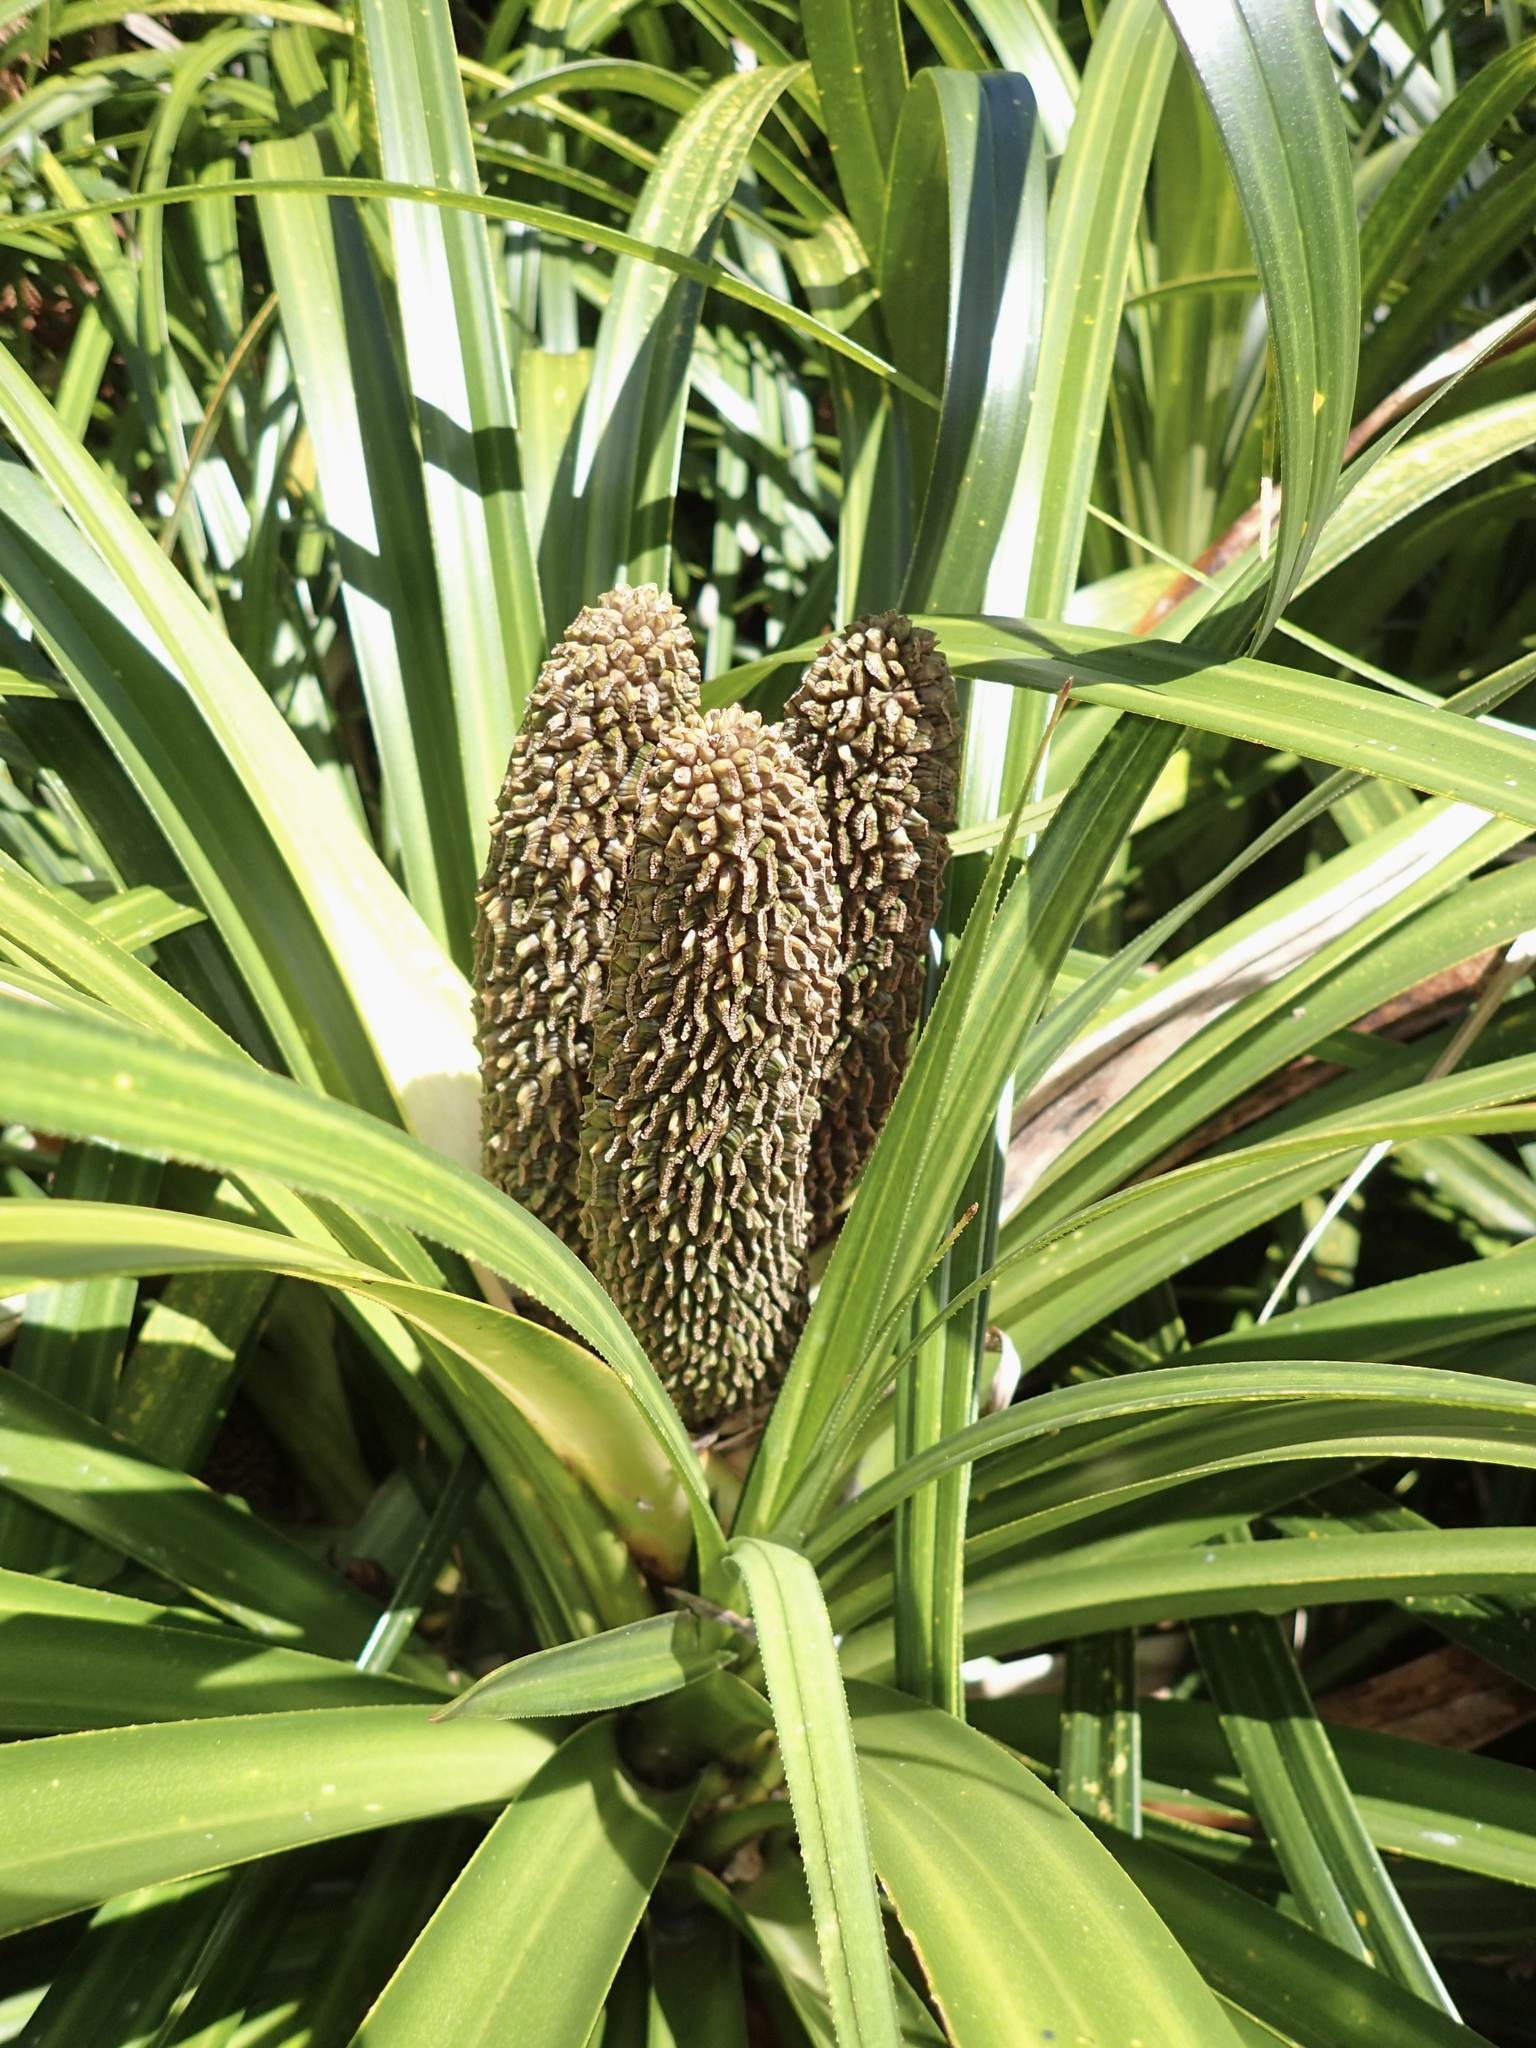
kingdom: Plantae
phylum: Tracheophyta
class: Liliopsida
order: Pandanales
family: Pandanaceae
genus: Freycinetia
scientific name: Freycinetia banksii
